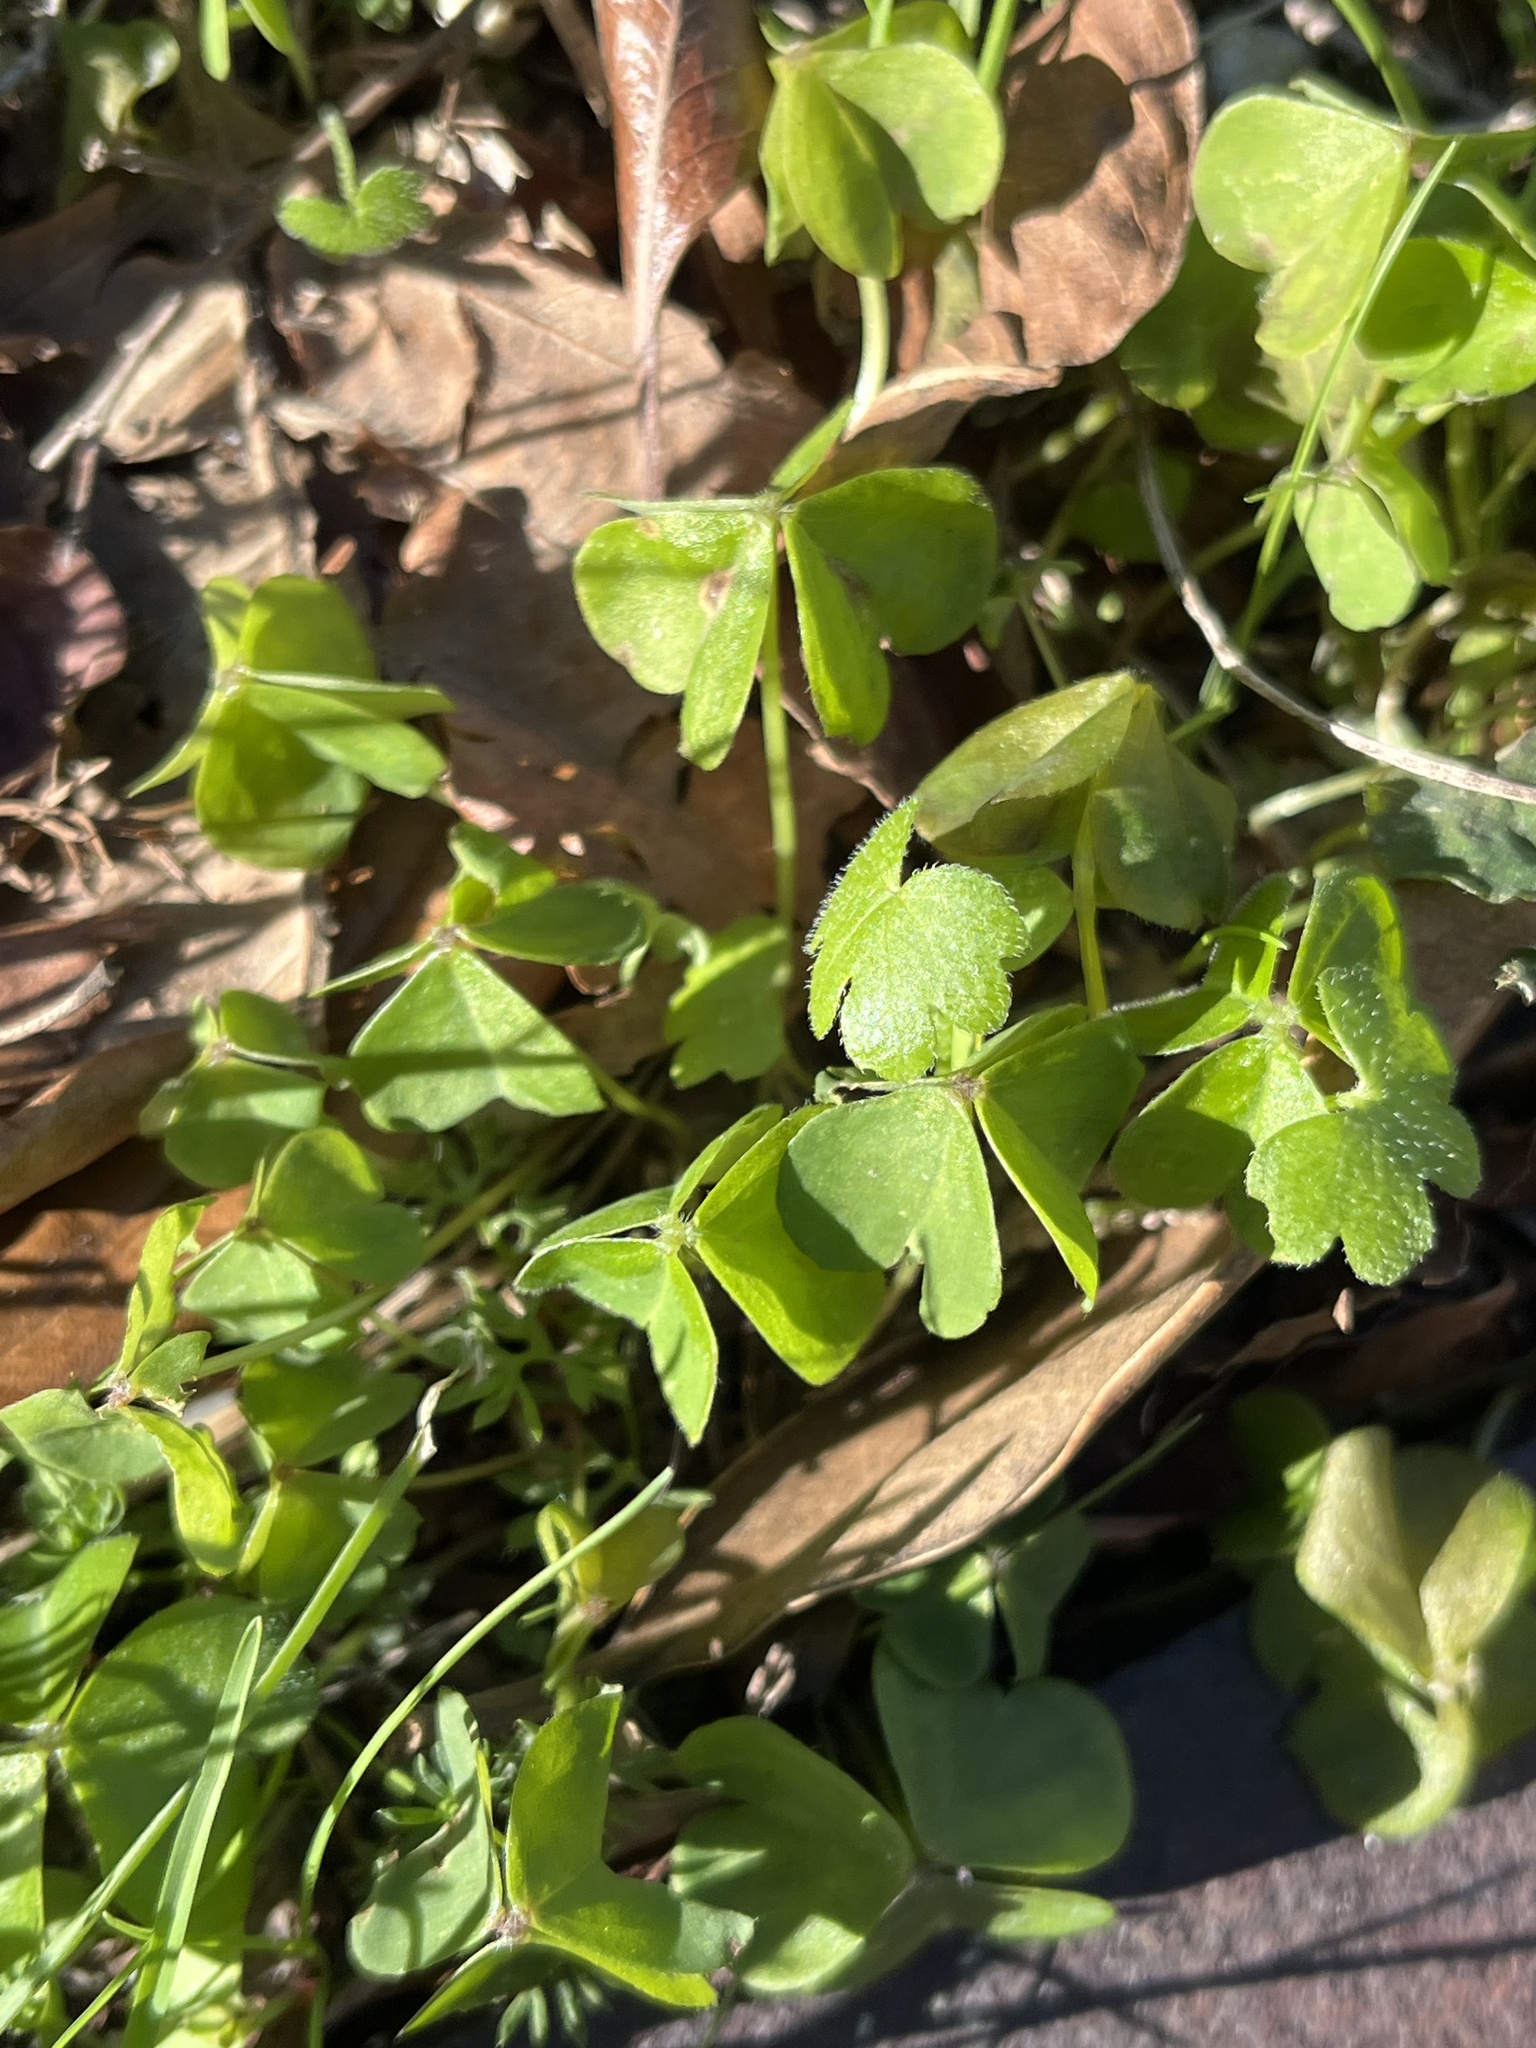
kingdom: Plantae
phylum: Tracheophyta
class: Magnoliopsida
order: Oxalidales
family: Oxalidaceae
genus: Oxalis
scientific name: Oxalis corniculata
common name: Procumbent yellow-sorrel
